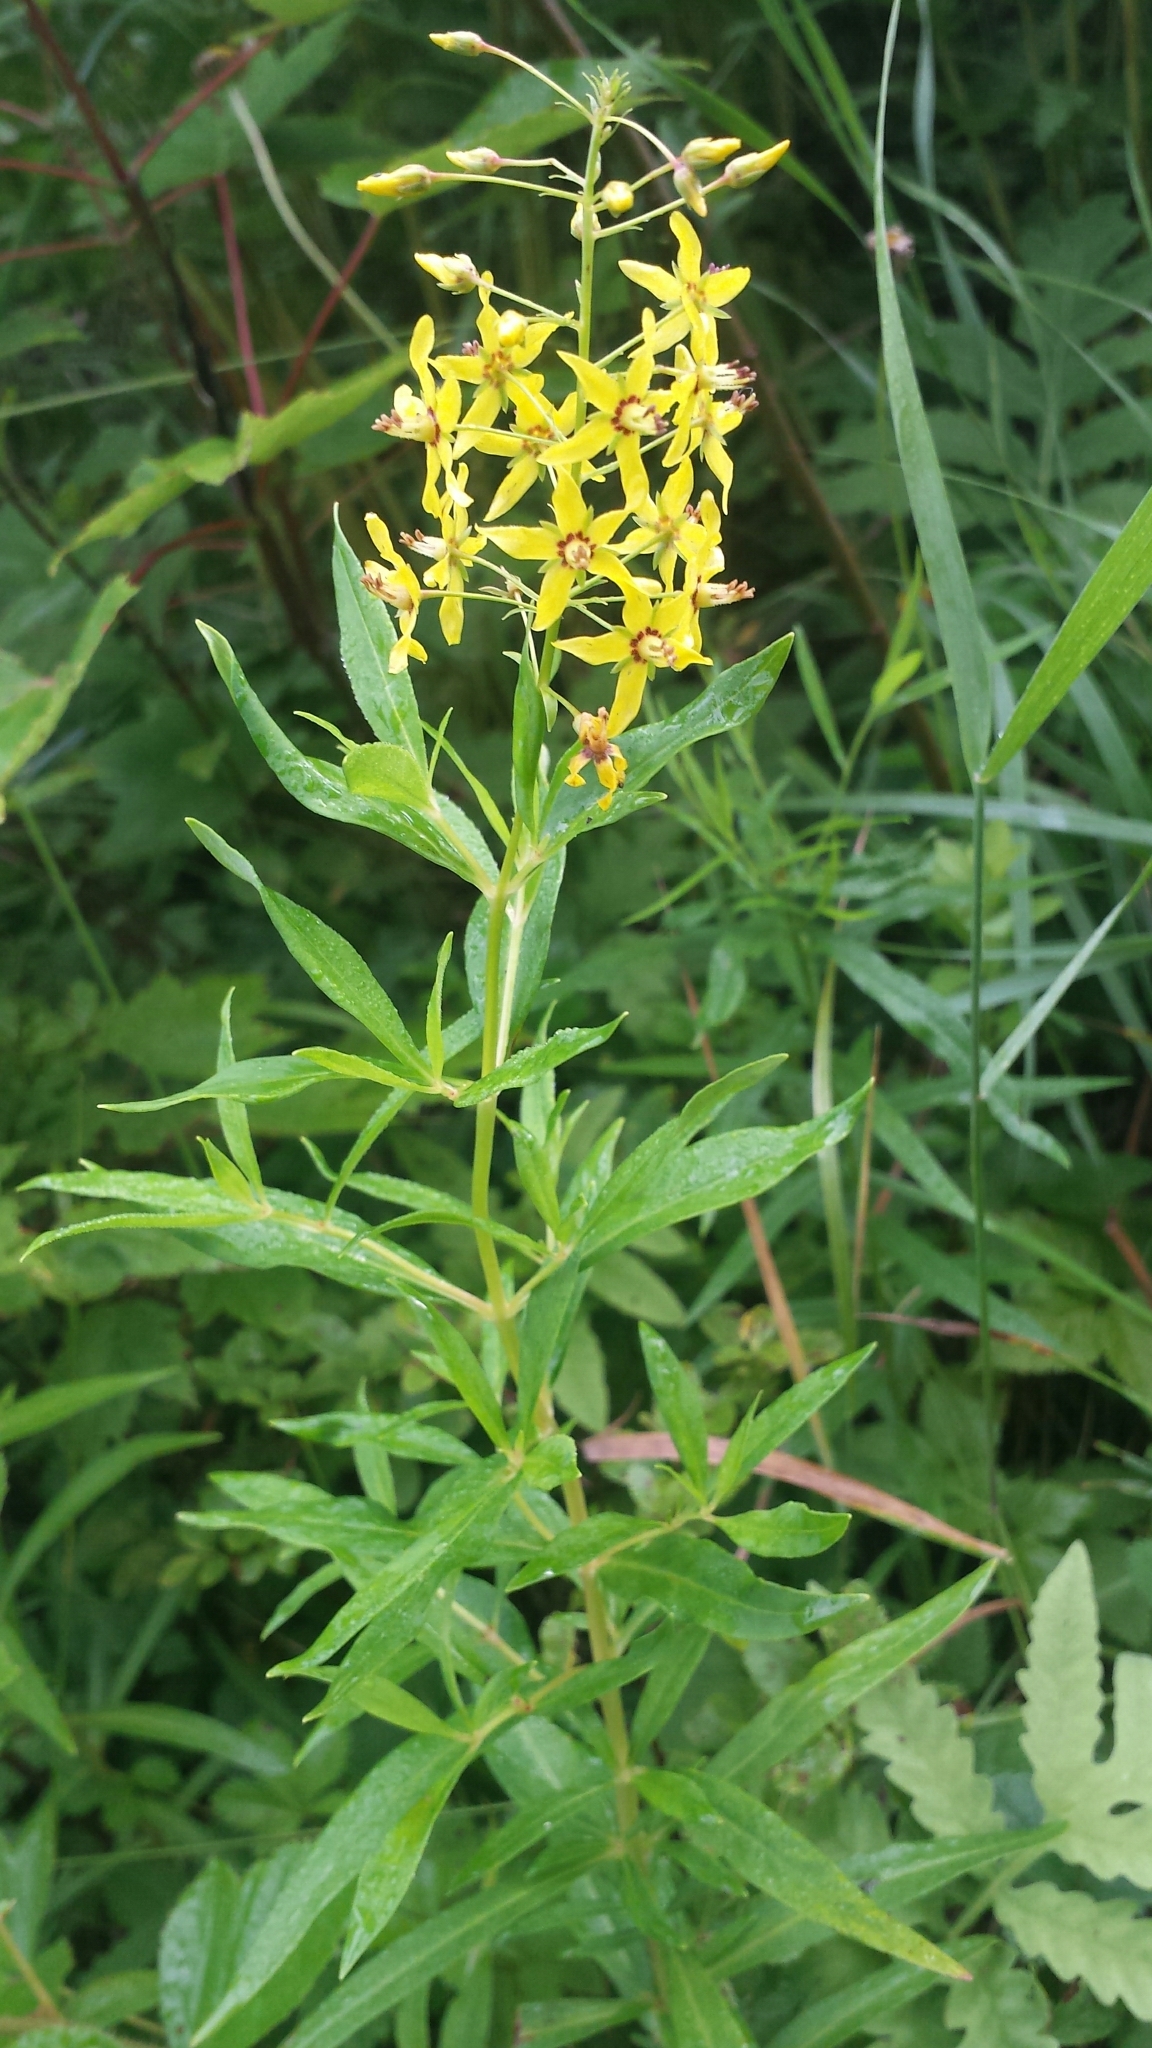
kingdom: Plantae
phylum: Tracheophyta
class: Magnoliopsida
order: Ericales
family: Primulaceae
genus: Lysimachia
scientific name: Lysimachia terrestris
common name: Lake loosestrife
